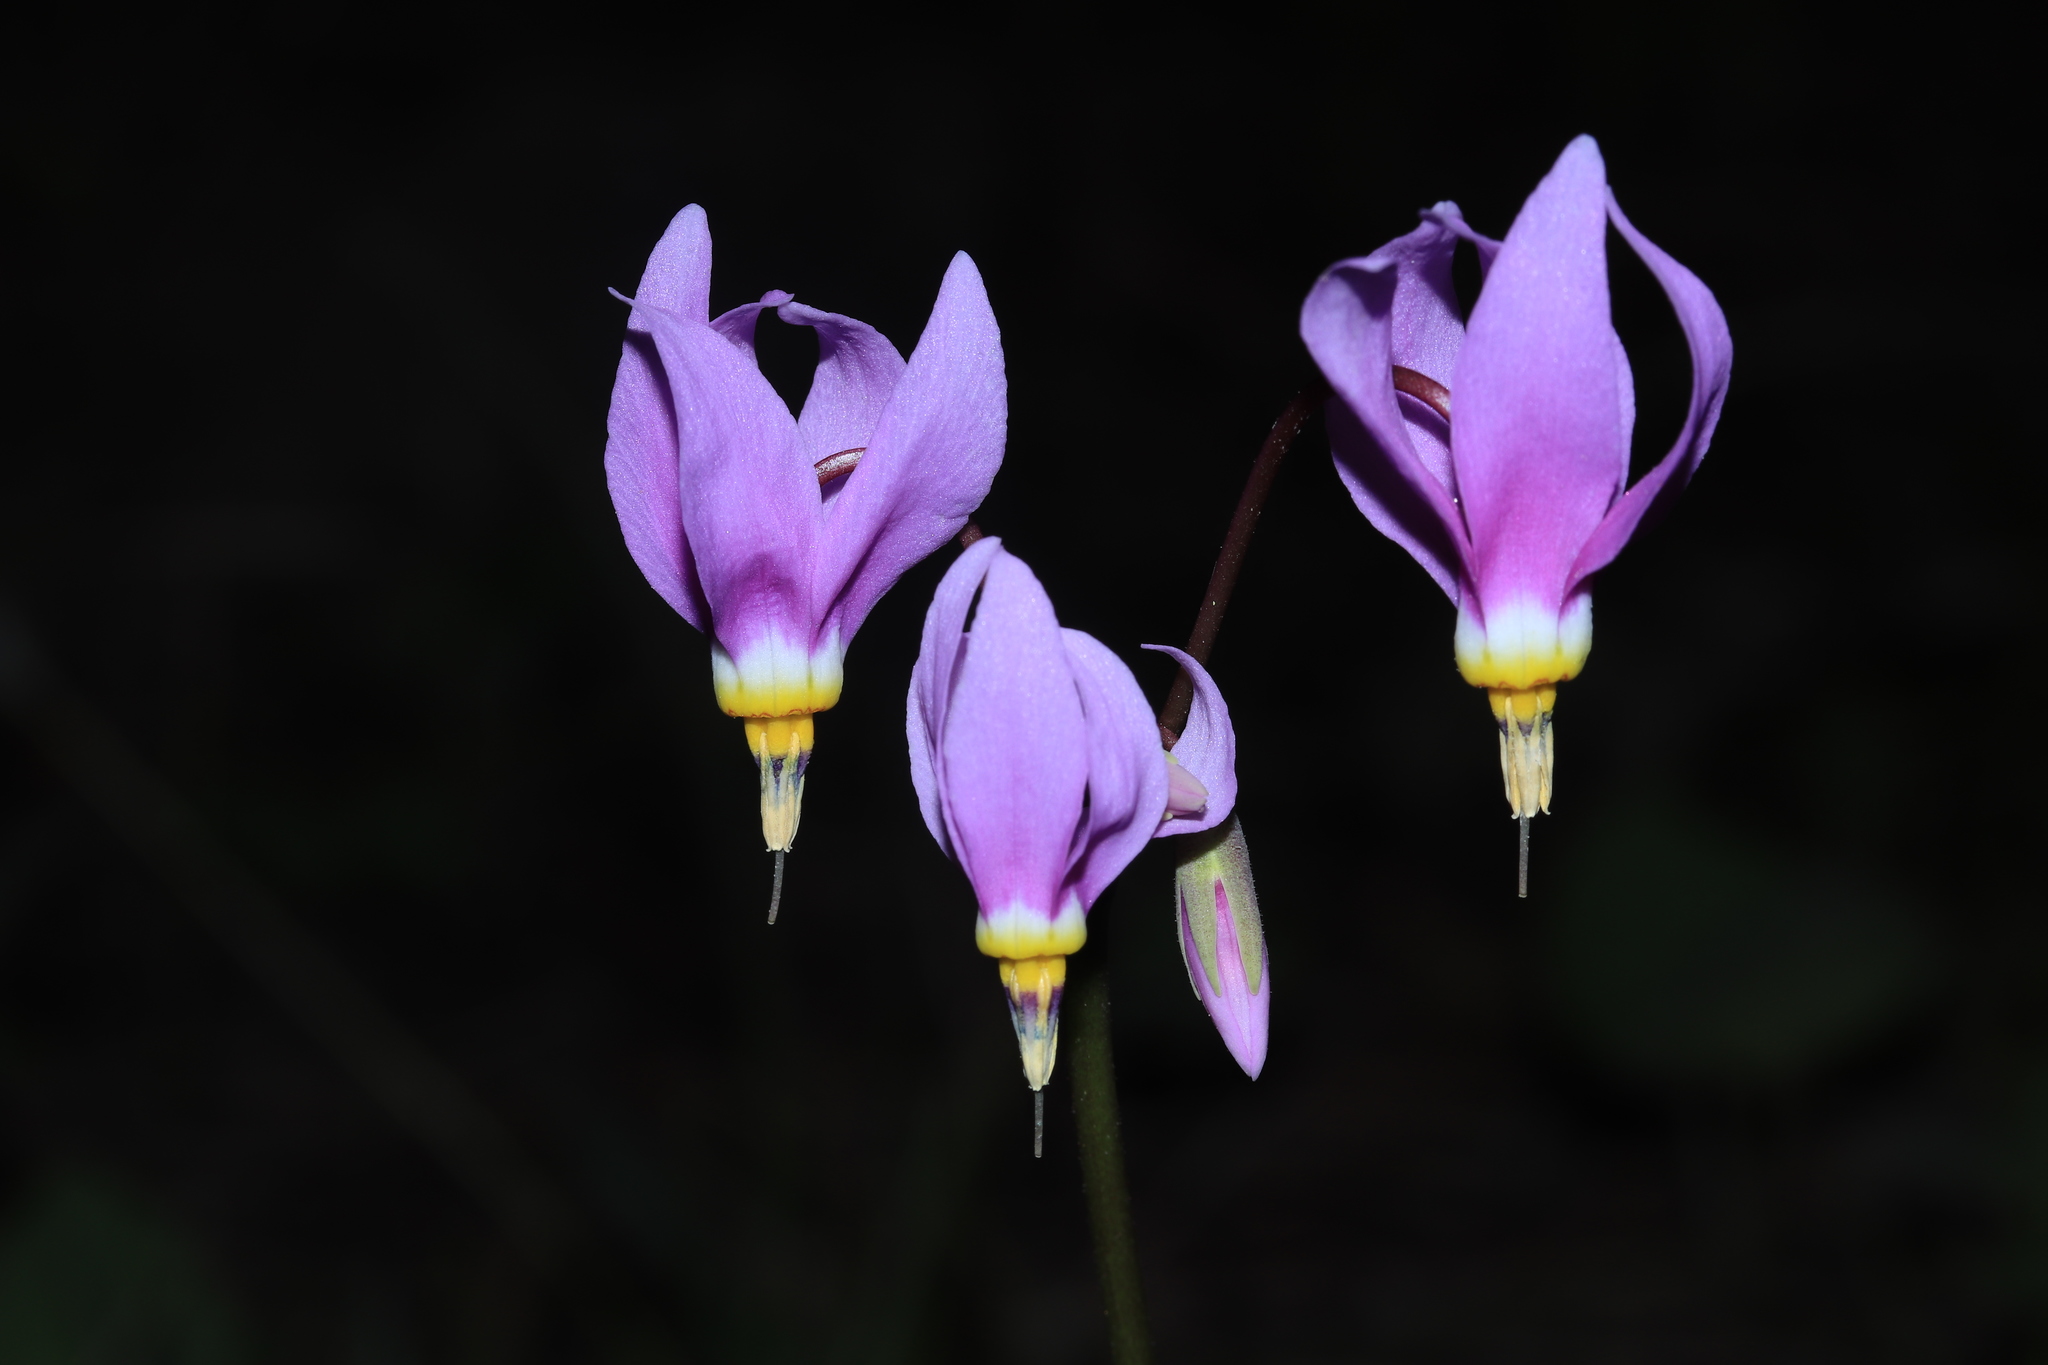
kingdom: Plantae
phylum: Tracheophyta
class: Magnoliopsida
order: Ericales
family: Primulaceae
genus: Dodecatheon
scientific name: Dodecatheon pulchellum
